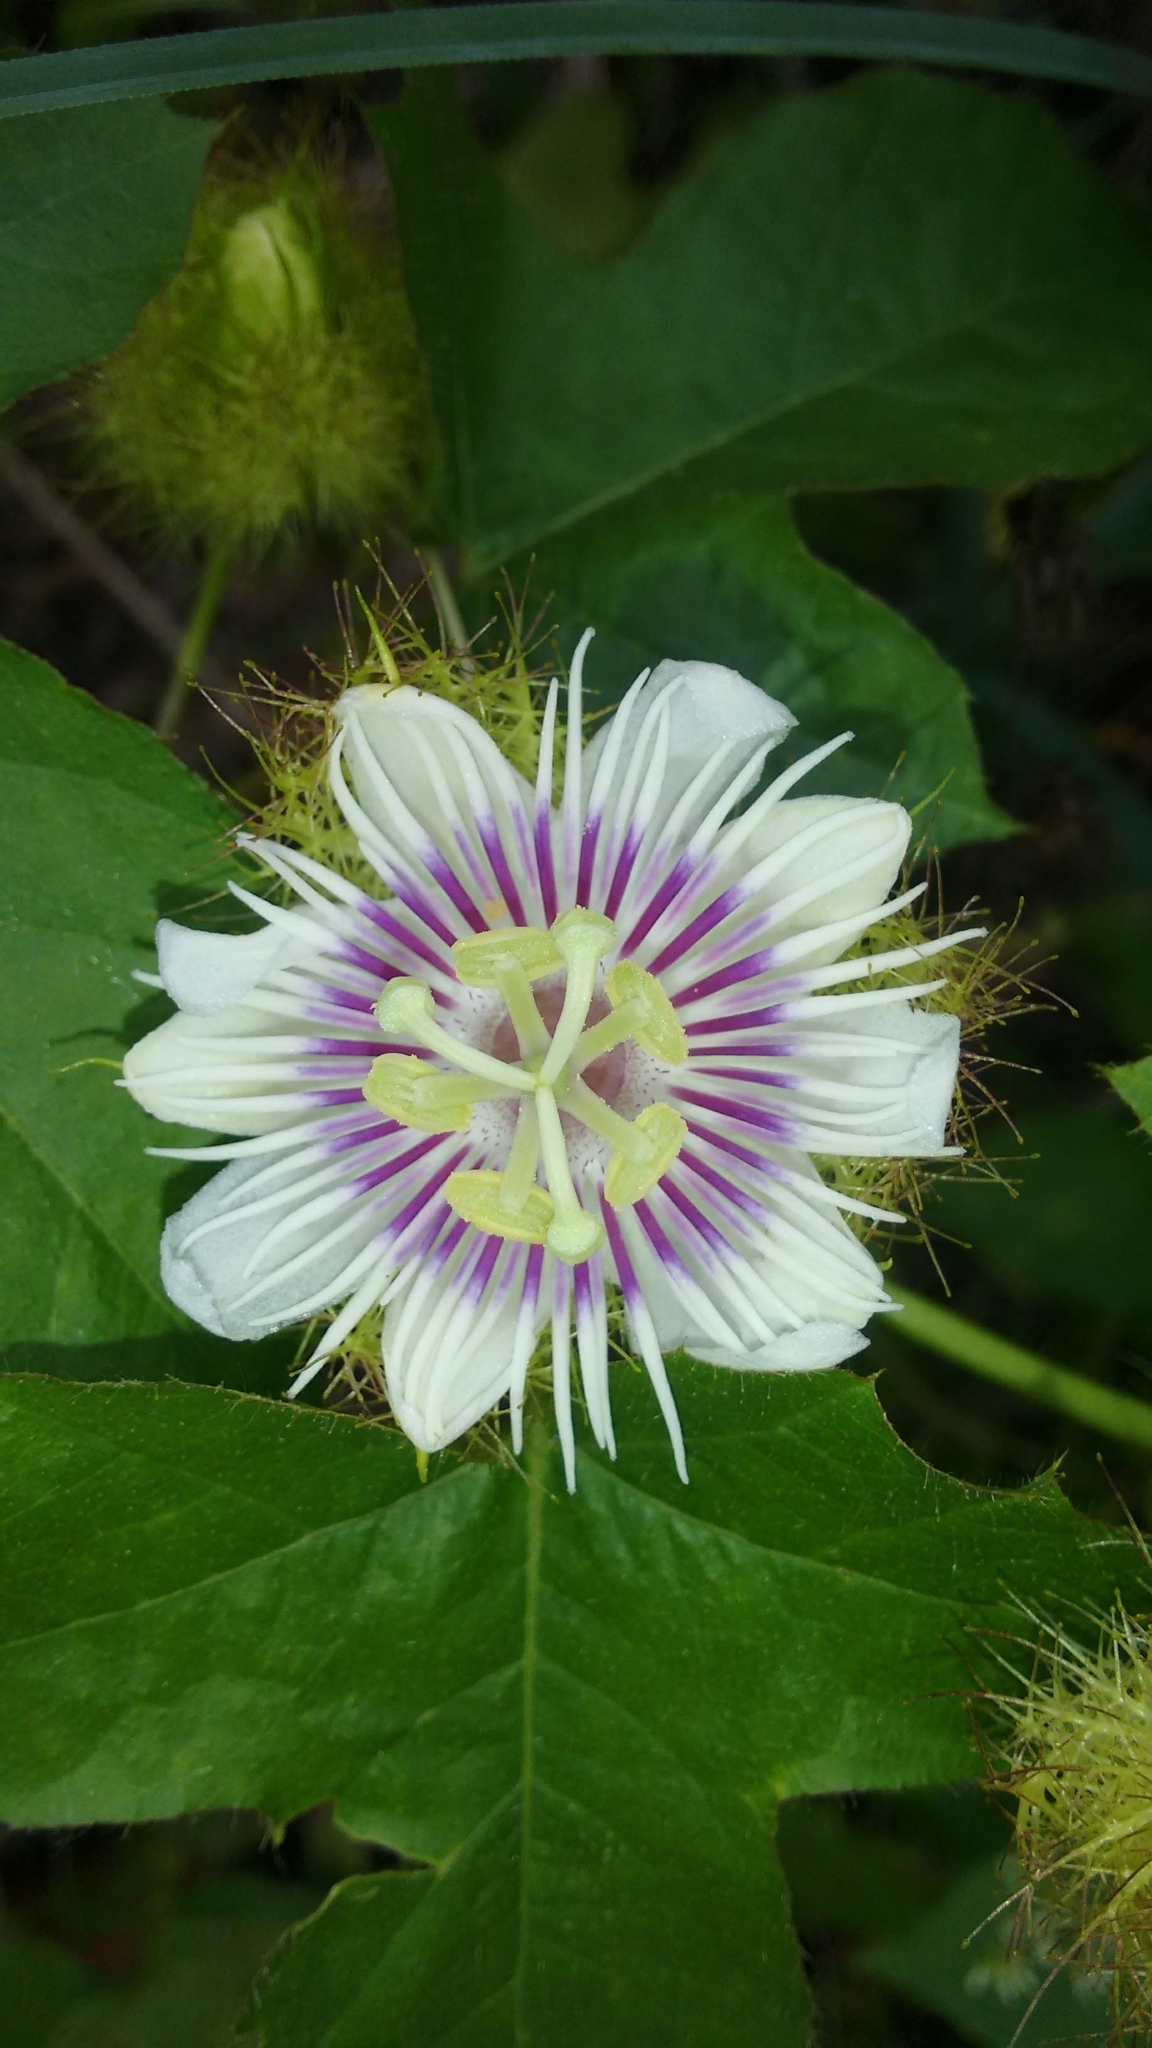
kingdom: Plantae
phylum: Tracheophyta
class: Magnoliopsida
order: Malpighiales
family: Passifloraceae
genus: Passiflora
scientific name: Passiflora foetida
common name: Fetid passionflower
